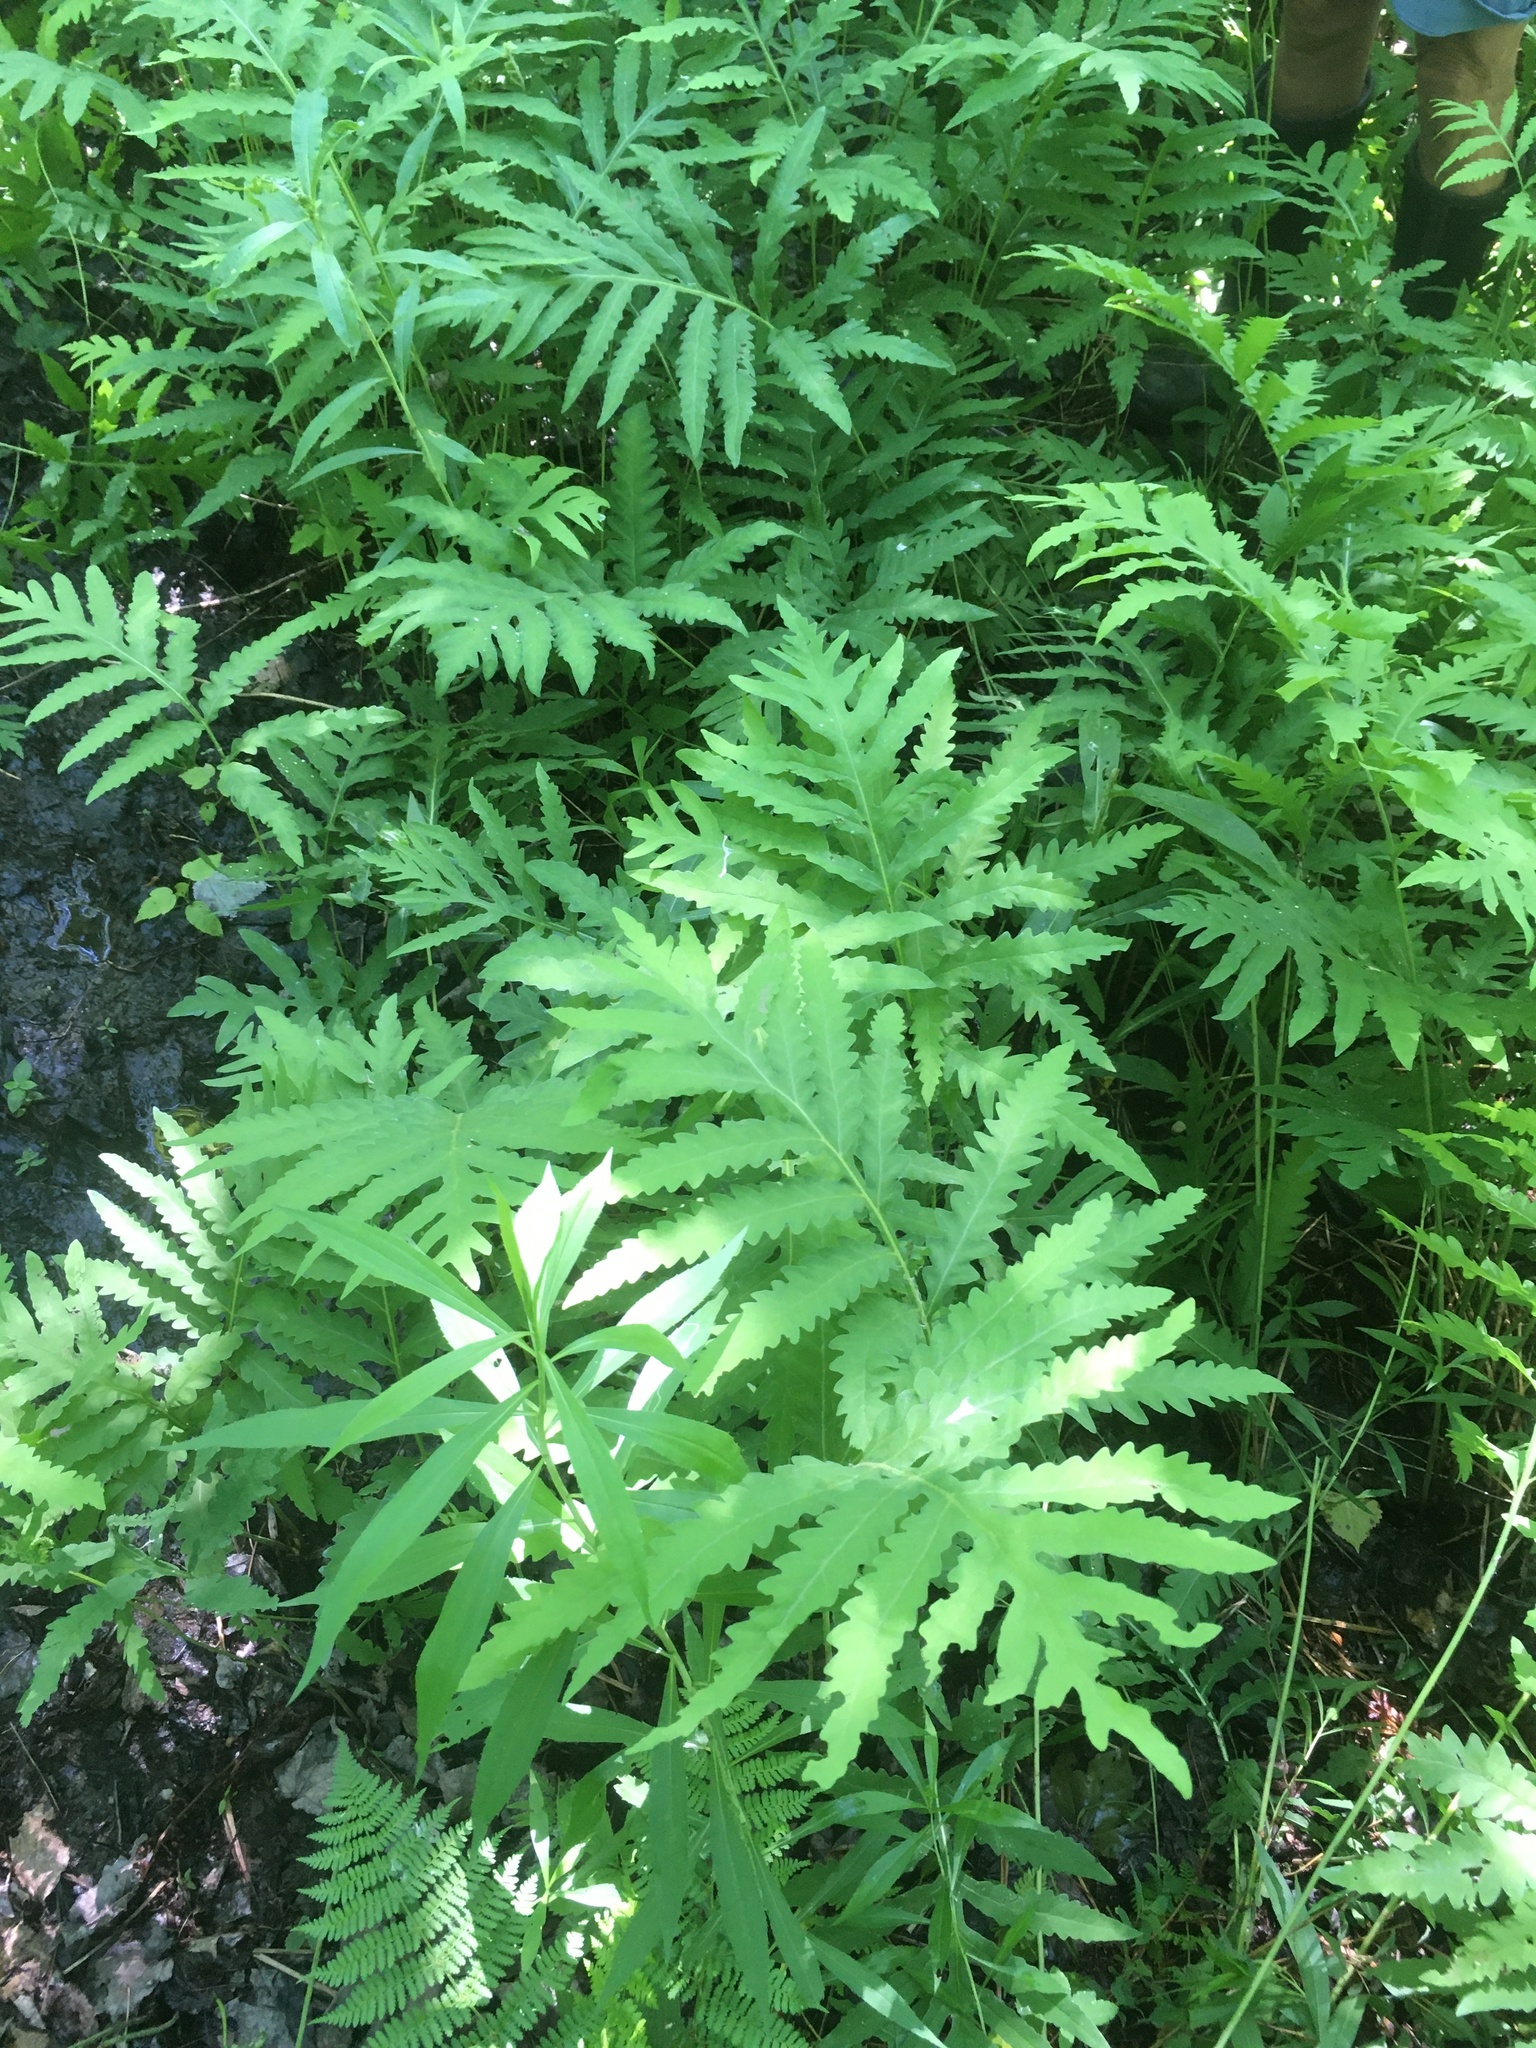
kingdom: Plantae
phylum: Tracheophyta
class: Polypodiopsida
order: Polypodiales
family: Onocleaceae
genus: Onoclea
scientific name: Onoclea sensibilis
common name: Sensitive fern
